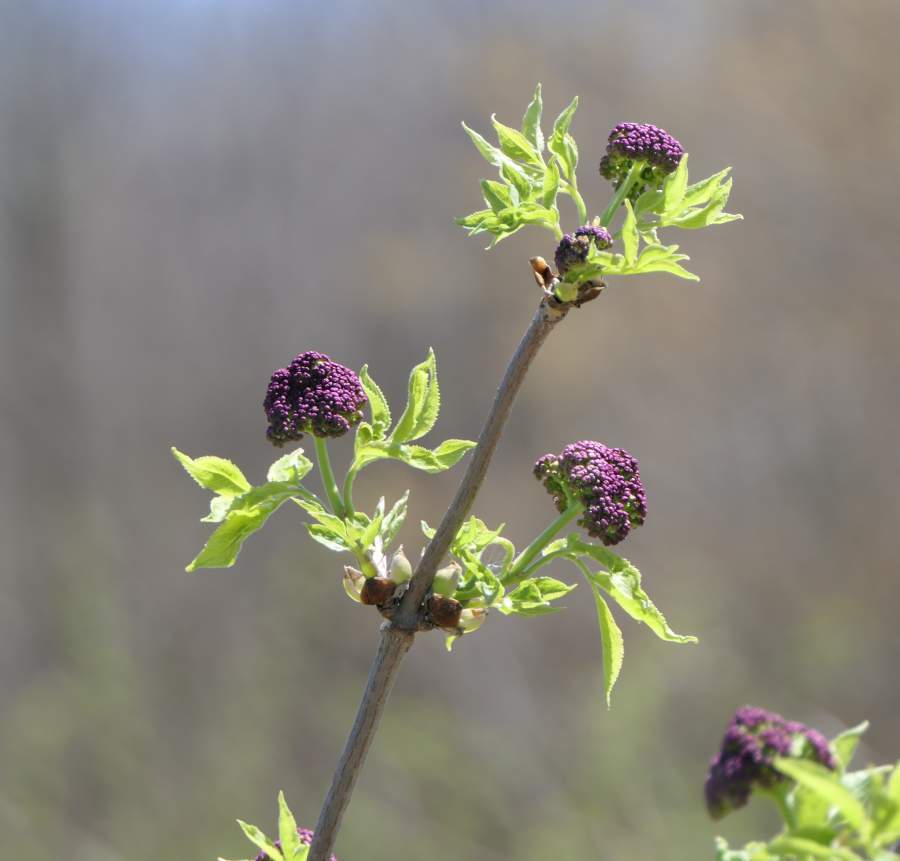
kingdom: Plantae
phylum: Tracheophyta
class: Magnoliopsida
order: Dipsacales
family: Viburnaceae
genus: Sambucus
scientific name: Sambucus racemosa
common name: Red-berried elder
